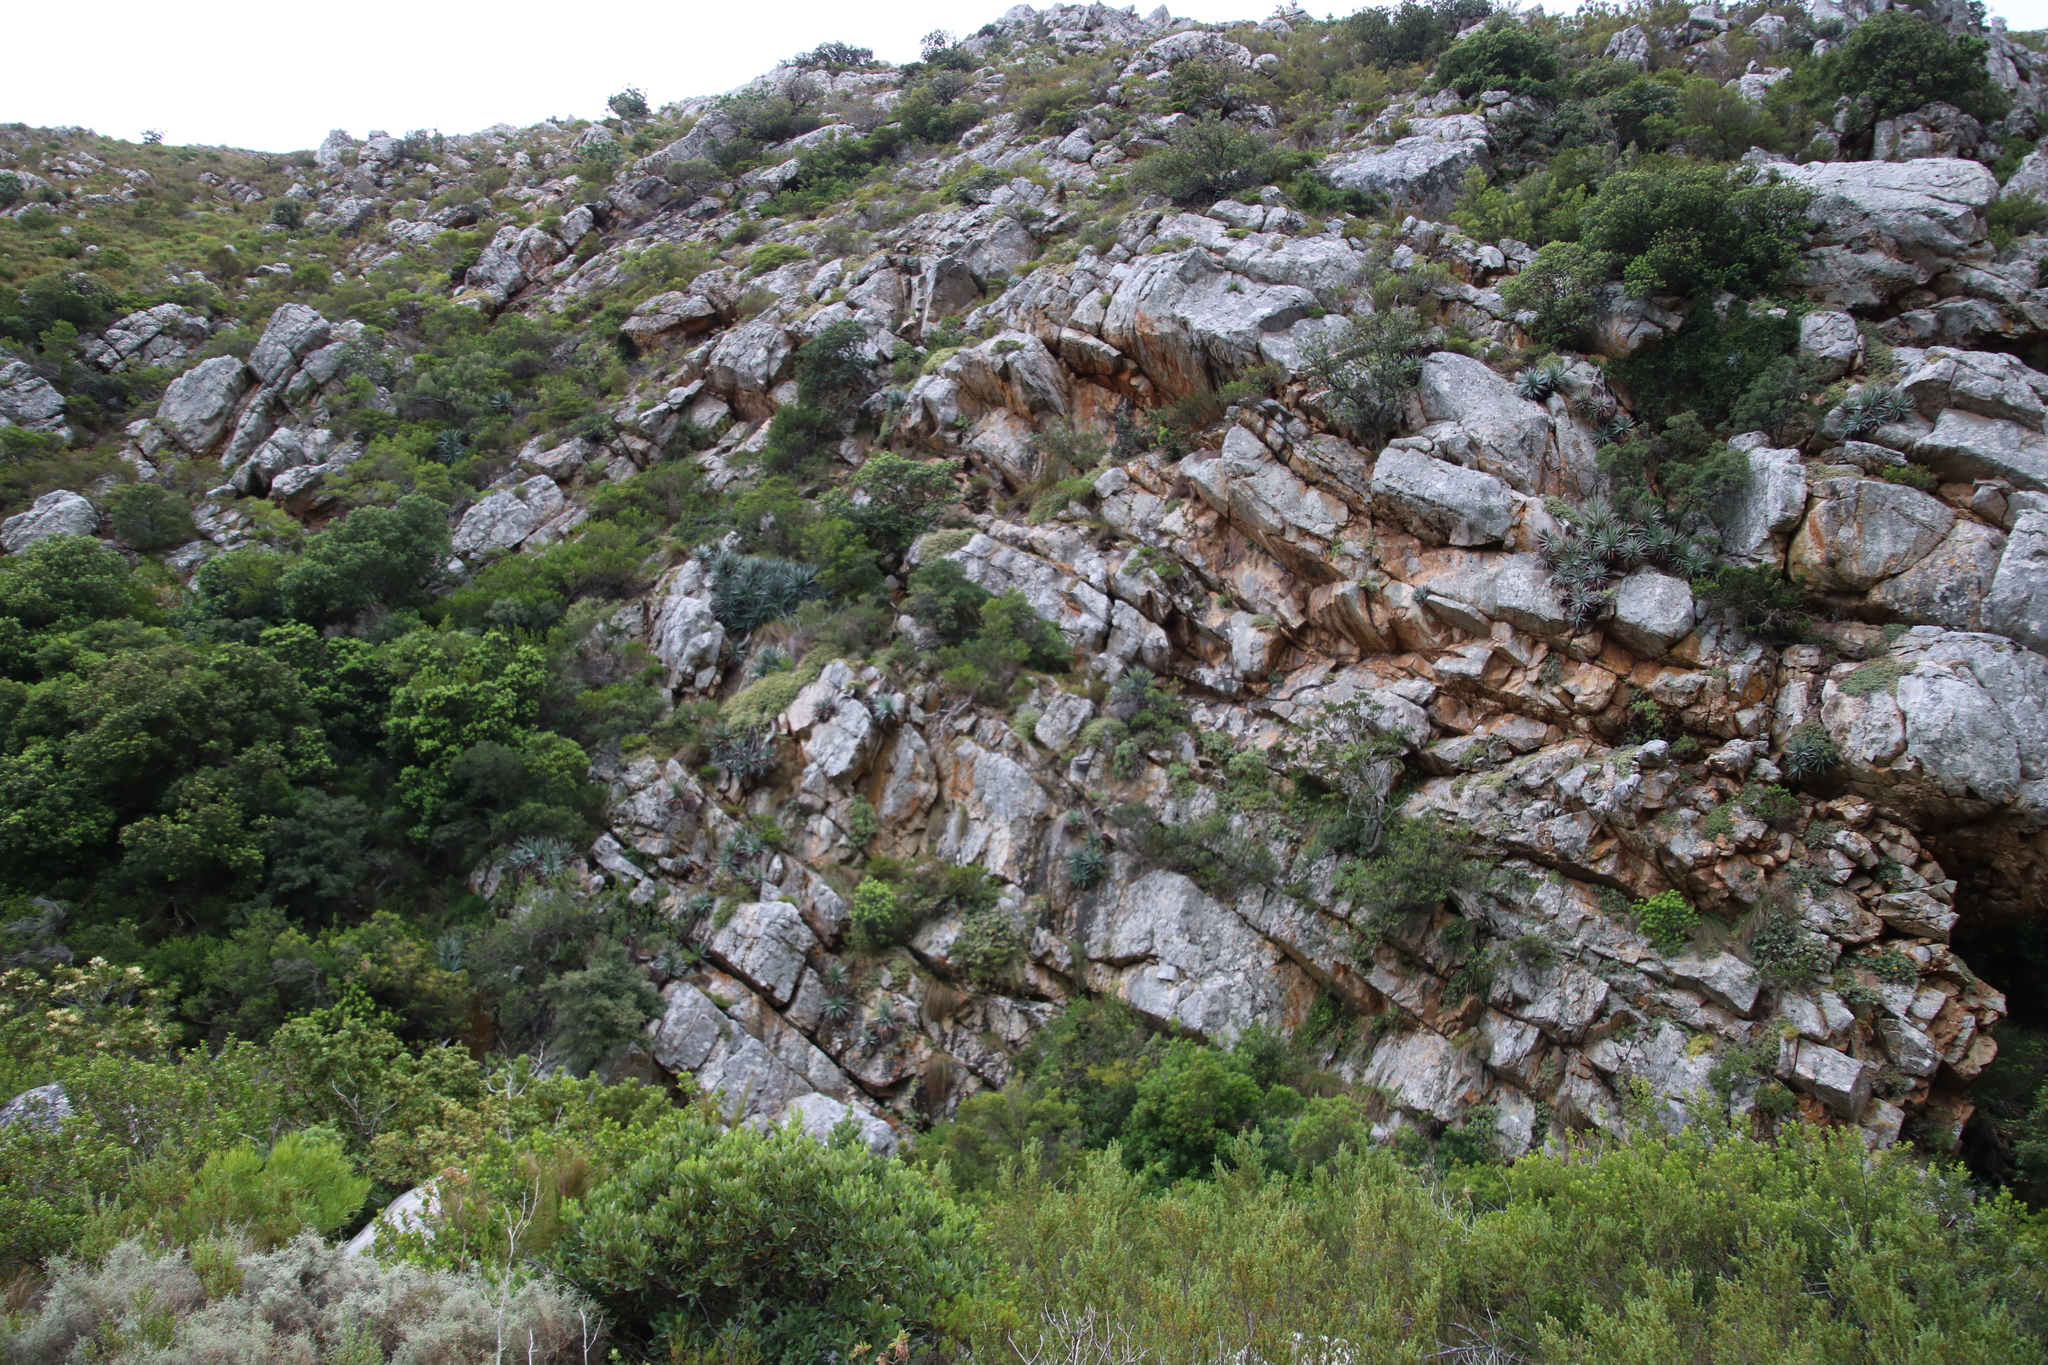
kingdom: Plantae
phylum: Tracheophyta
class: Liliopsida
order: Asparagales
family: Asphodelaceae
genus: Aloe
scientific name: Aloe succotrina
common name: Bombay aloe
